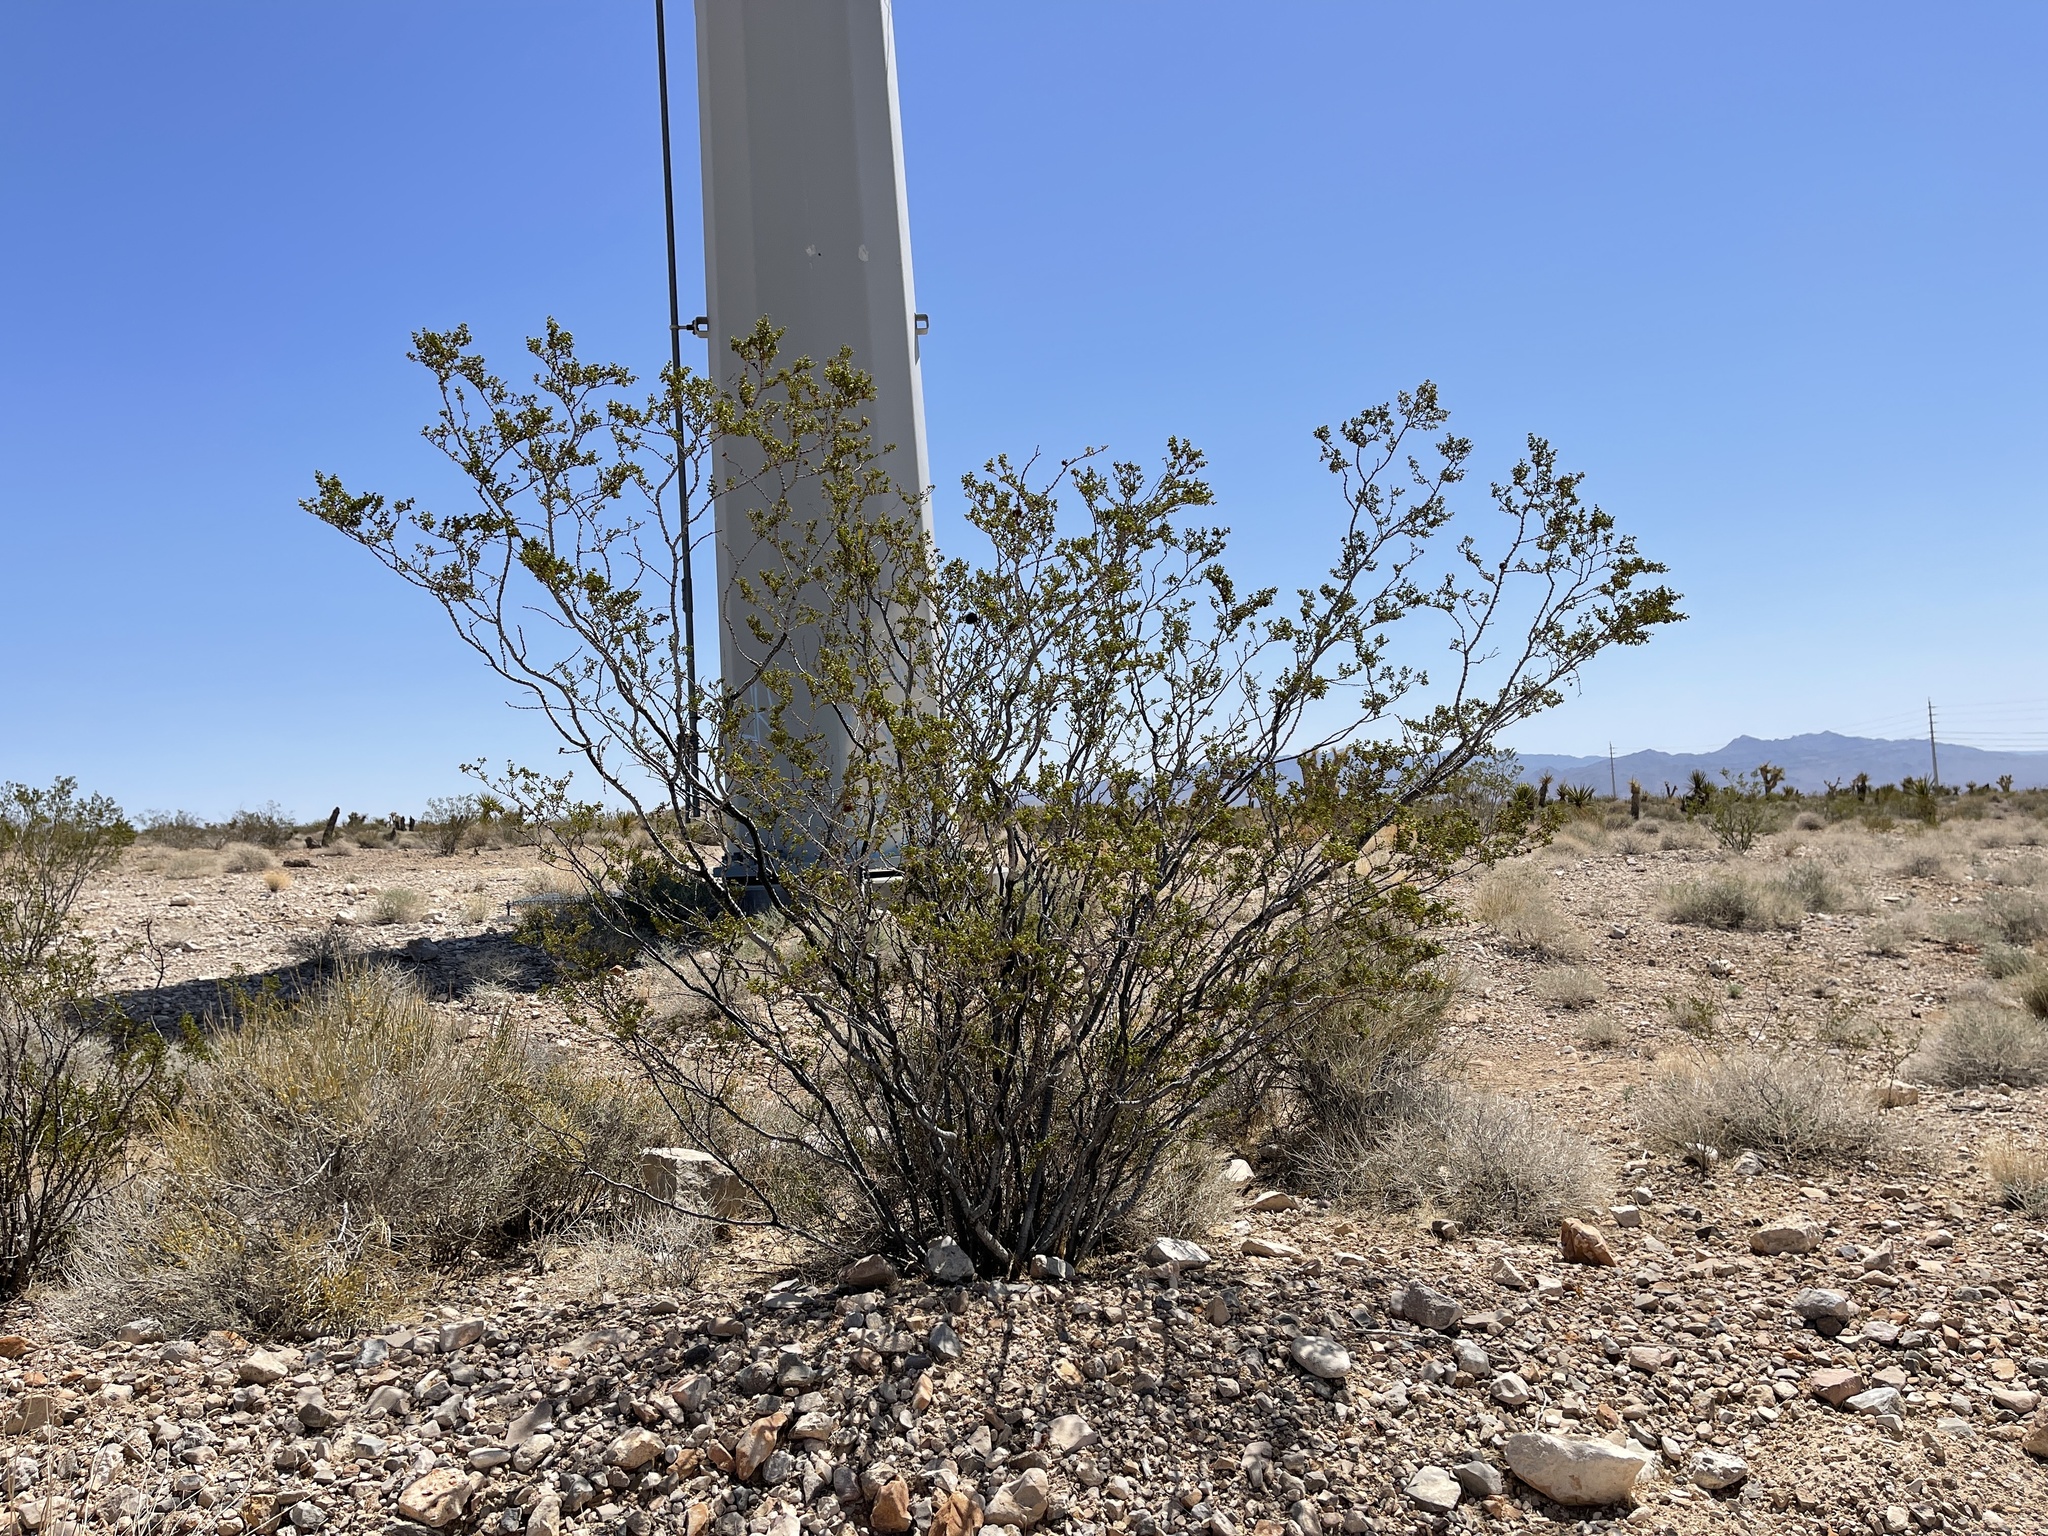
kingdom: Plantae
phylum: Tracheophyta
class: Magnoliopsida
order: Zygophyllales
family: Zygophyllaceae
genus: Larrea
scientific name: Larrea tridentata
